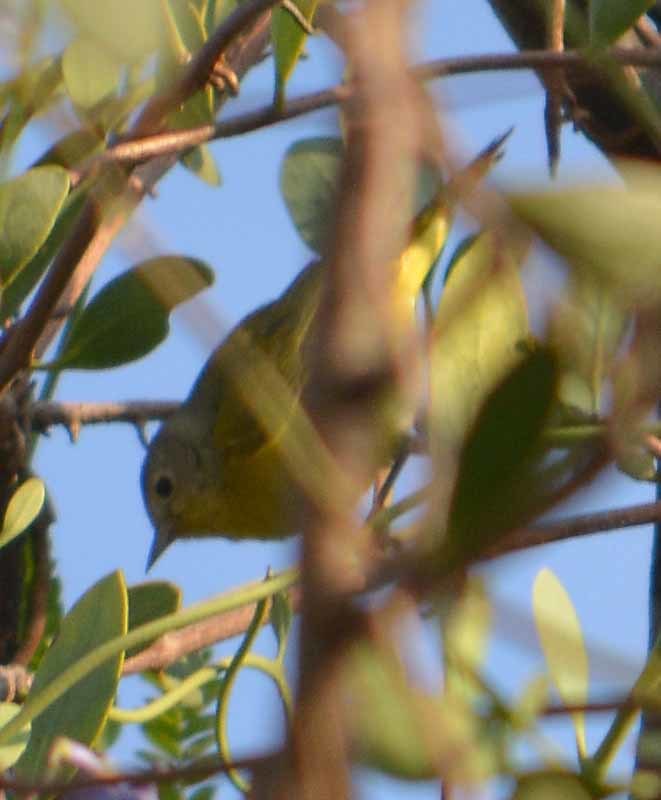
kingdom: Animalia
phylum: Chordata
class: Aves
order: Passeriformes
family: Parulidae
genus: Leiothlypis
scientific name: Leiothlypis ruficapilla
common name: Nashville warbler
